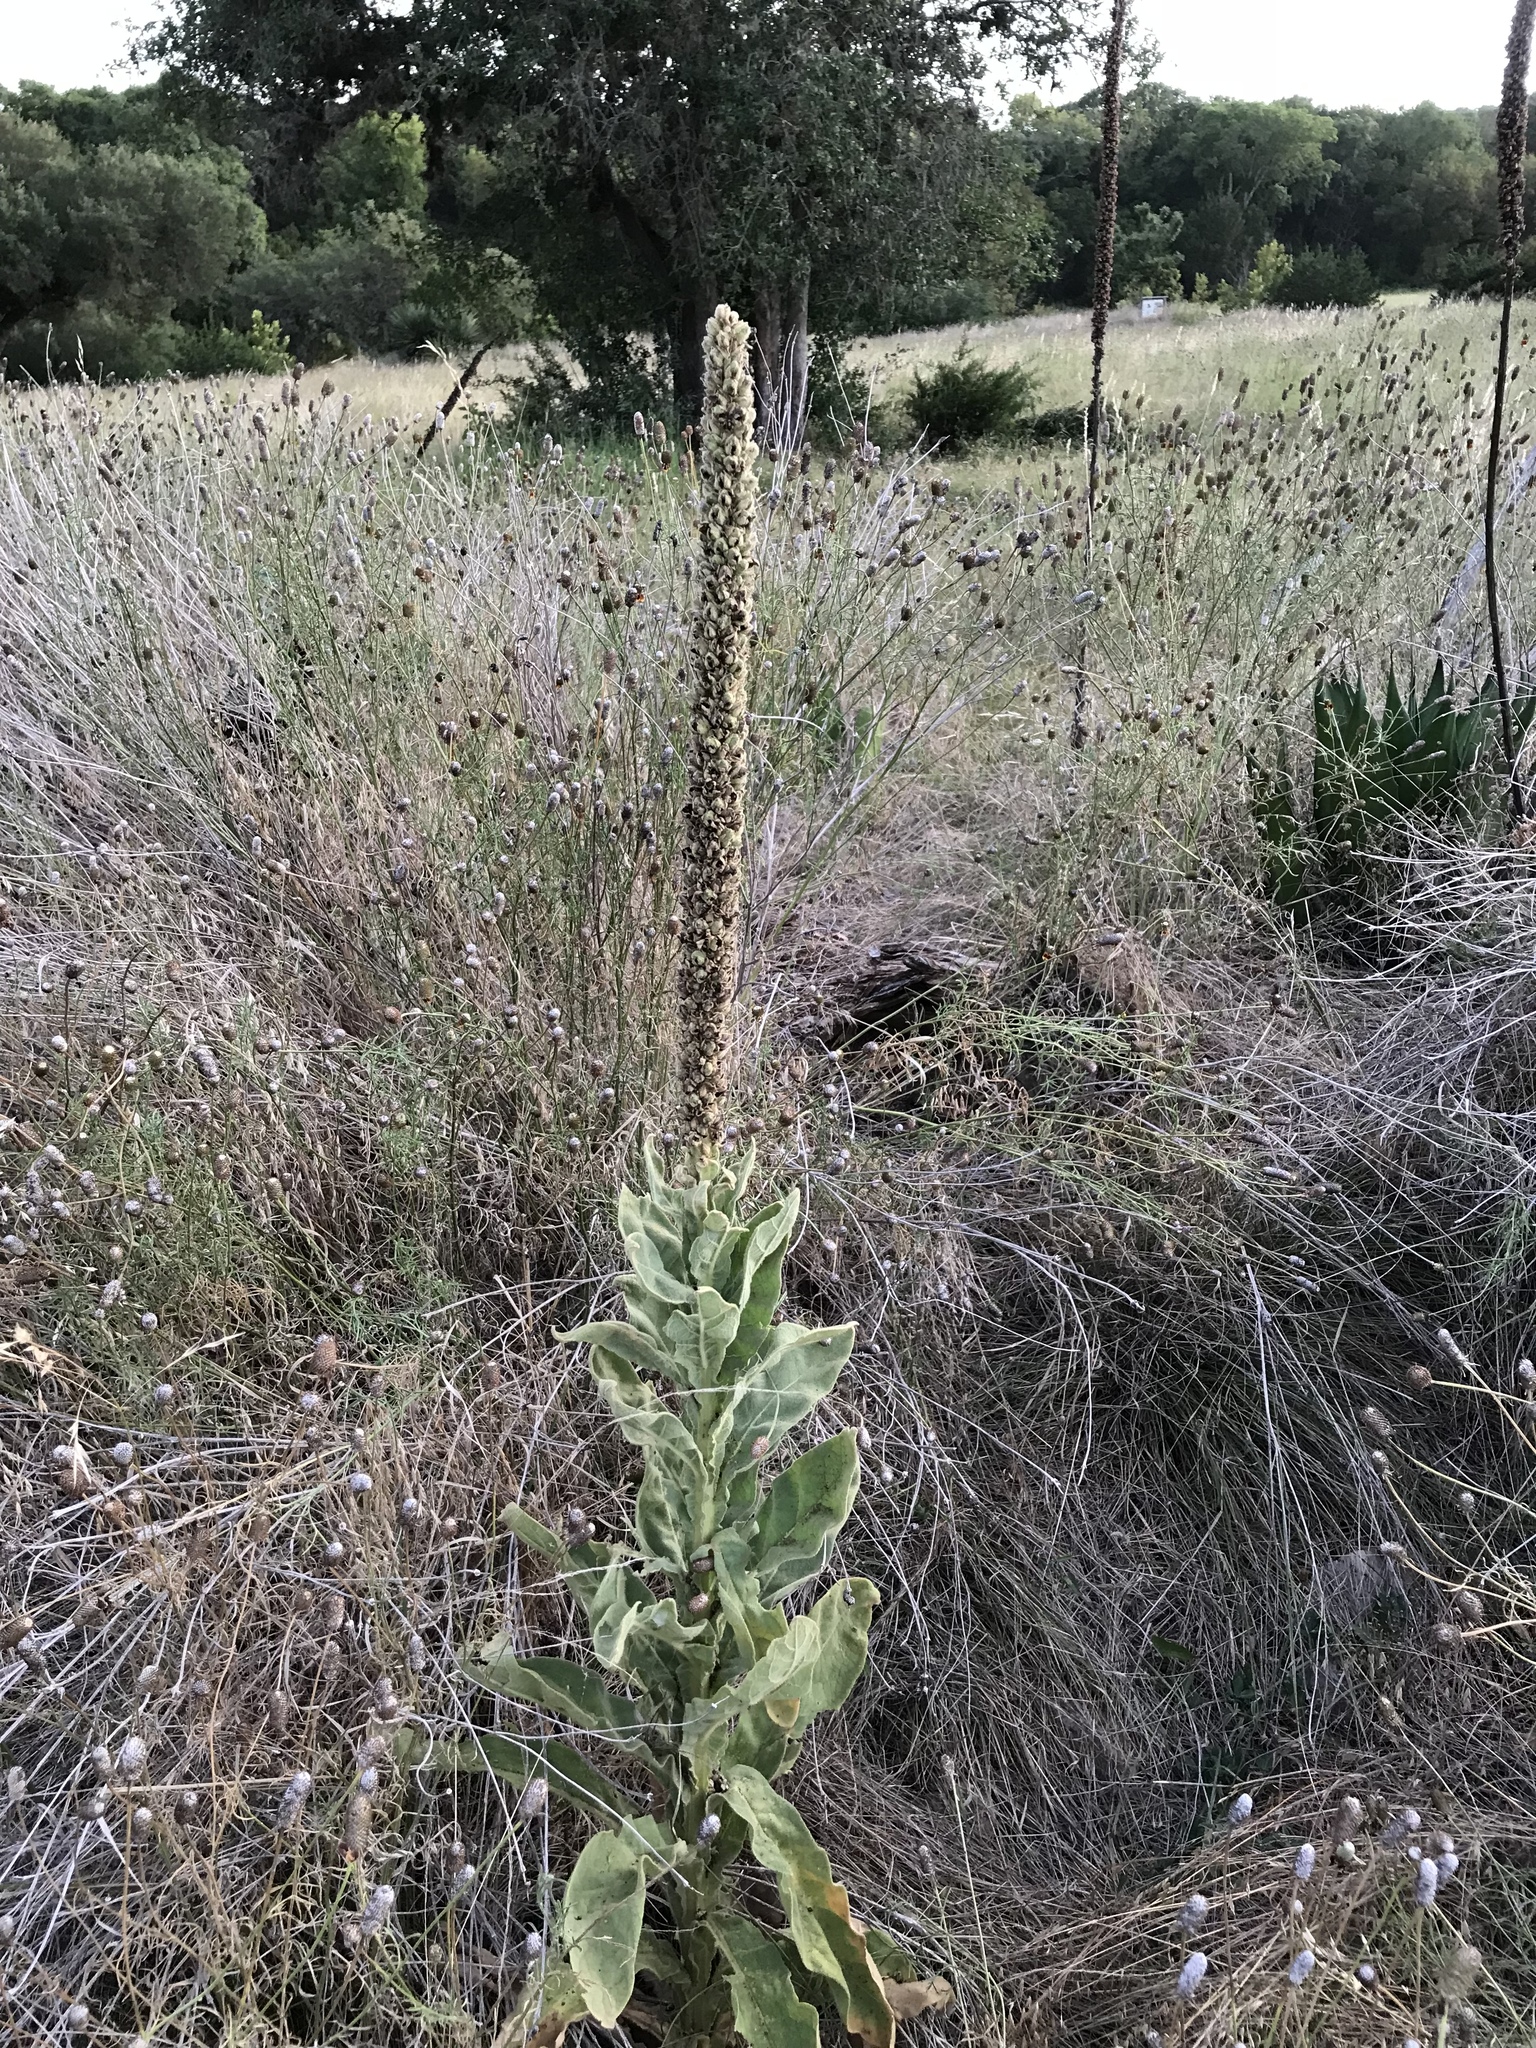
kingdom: Plantae
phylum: Tracheophyta
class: Magnoliopsida
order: Lamiales
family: Scrophulariaceae
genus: Verbascum
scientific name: Verbascum thapsus
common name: Common mullein
